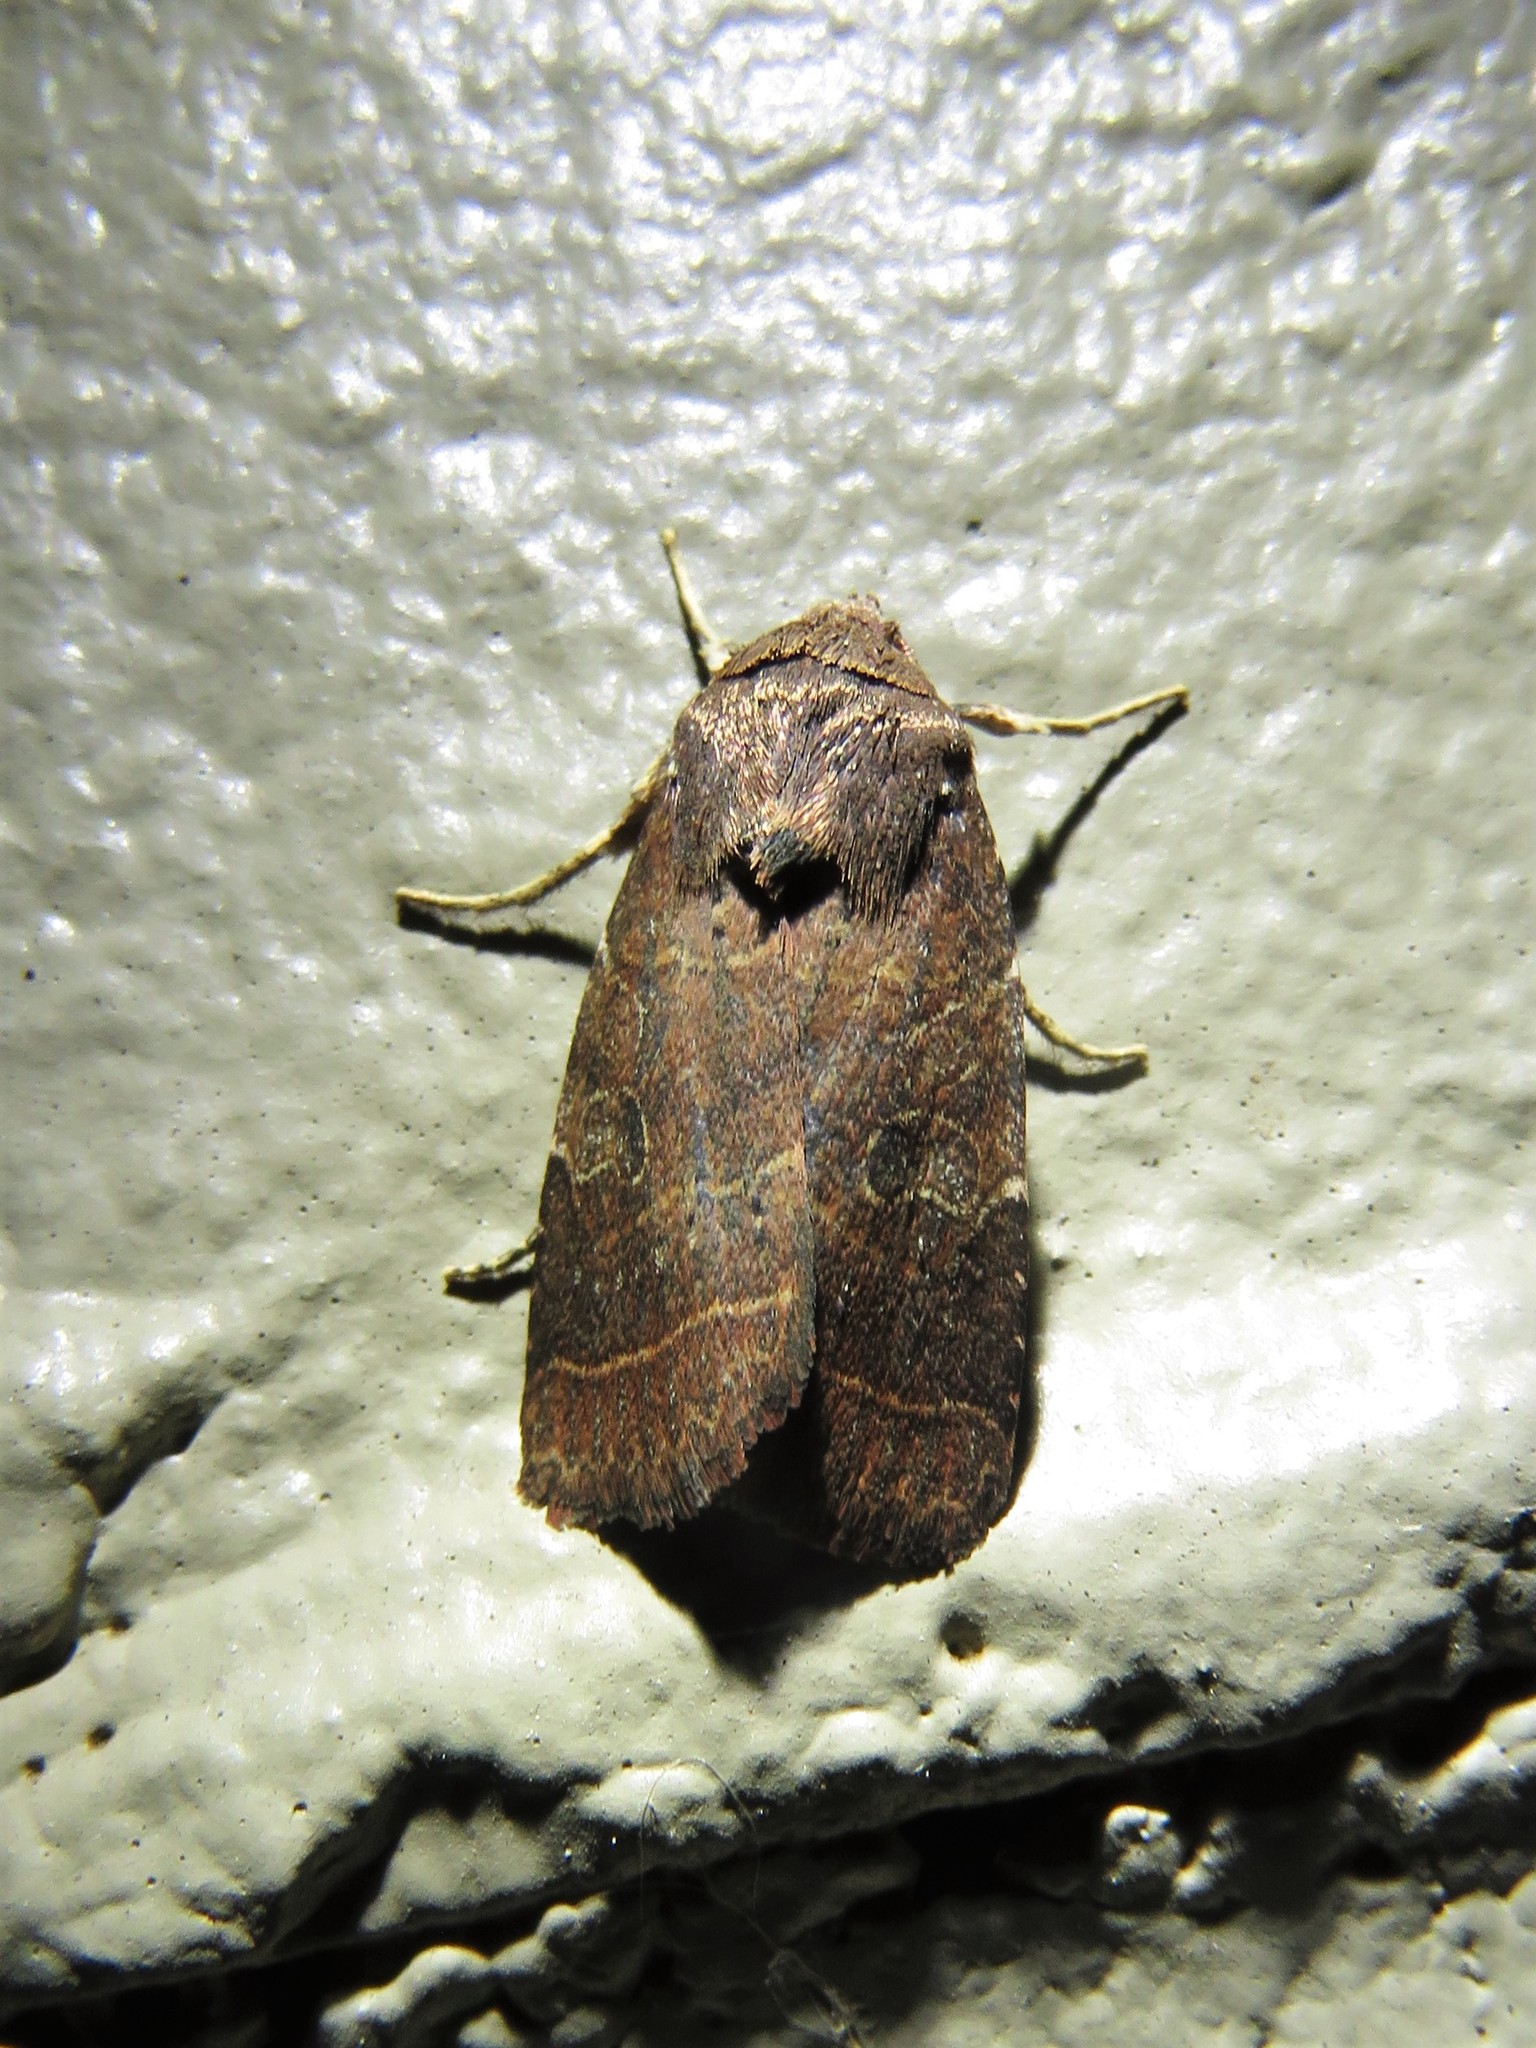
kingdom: Animalia
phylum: Arthropoda
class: Insecta
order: Lepidoptera
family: Noctuidae
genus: Orthodes
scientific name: Orthodes furtiva
